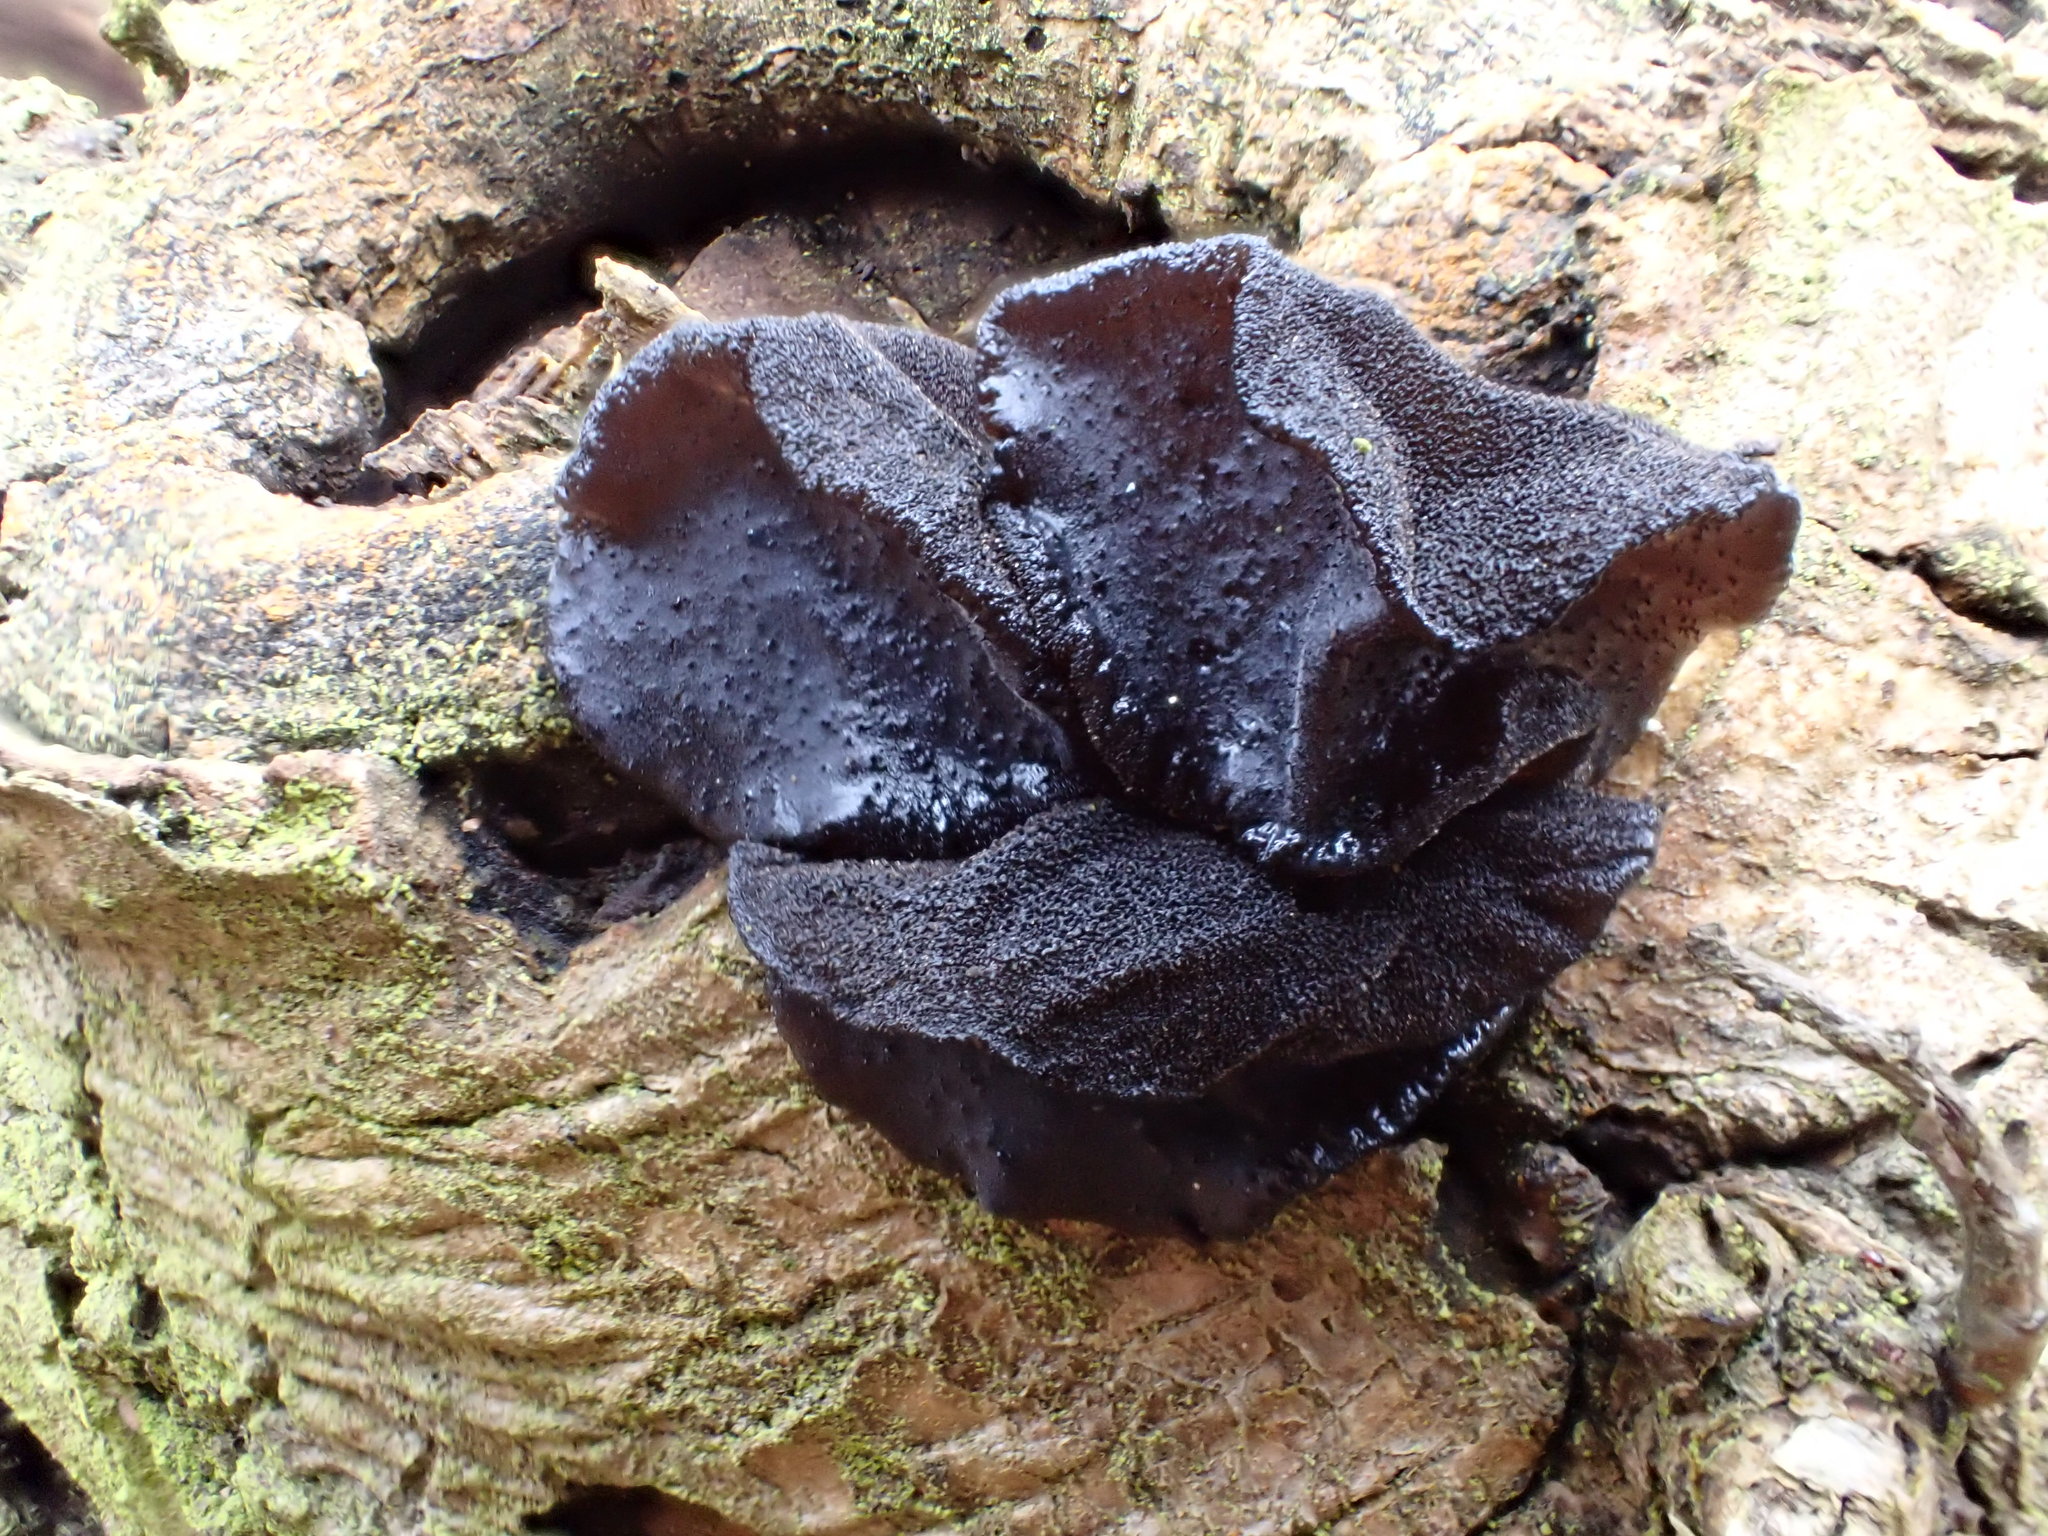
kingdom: Fungi
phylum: Basidiomycota
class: Agaricomycetes
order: Auriculariales
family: Auriculariaceae
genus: Exidia
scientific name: Exidia glandulosa
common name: Witches' butter
